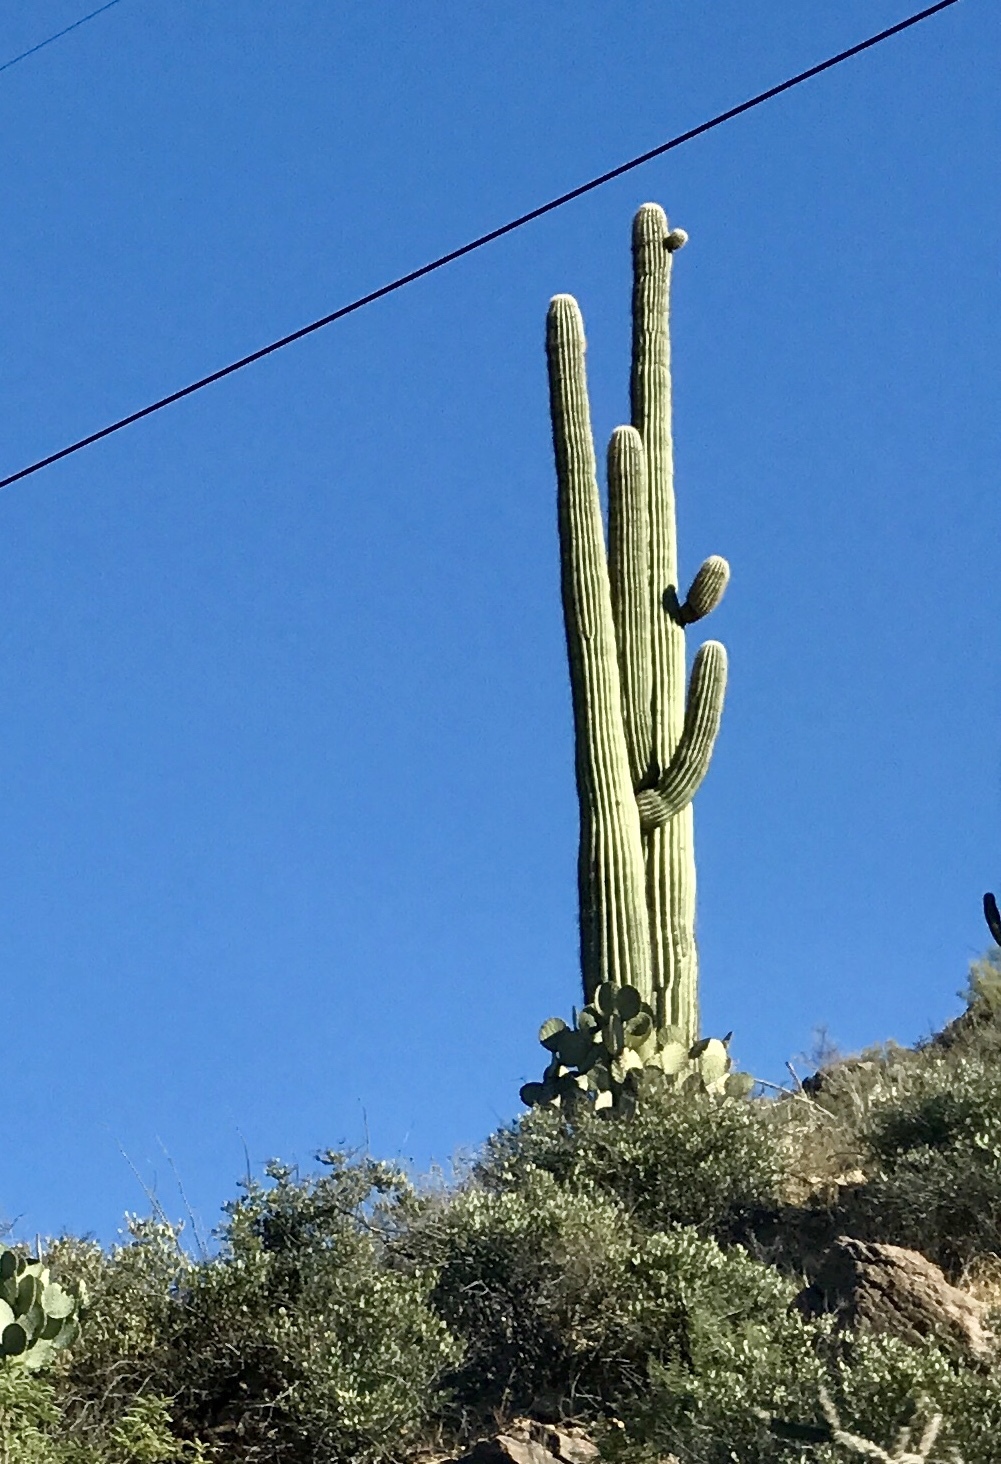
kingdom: Plantae
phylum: Tracheophyta
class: Magnoliopsida
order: Caryophyllales
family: Cactaceae
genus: Carnegiea
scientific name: Carnegiea gigantea
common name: Saguaro
